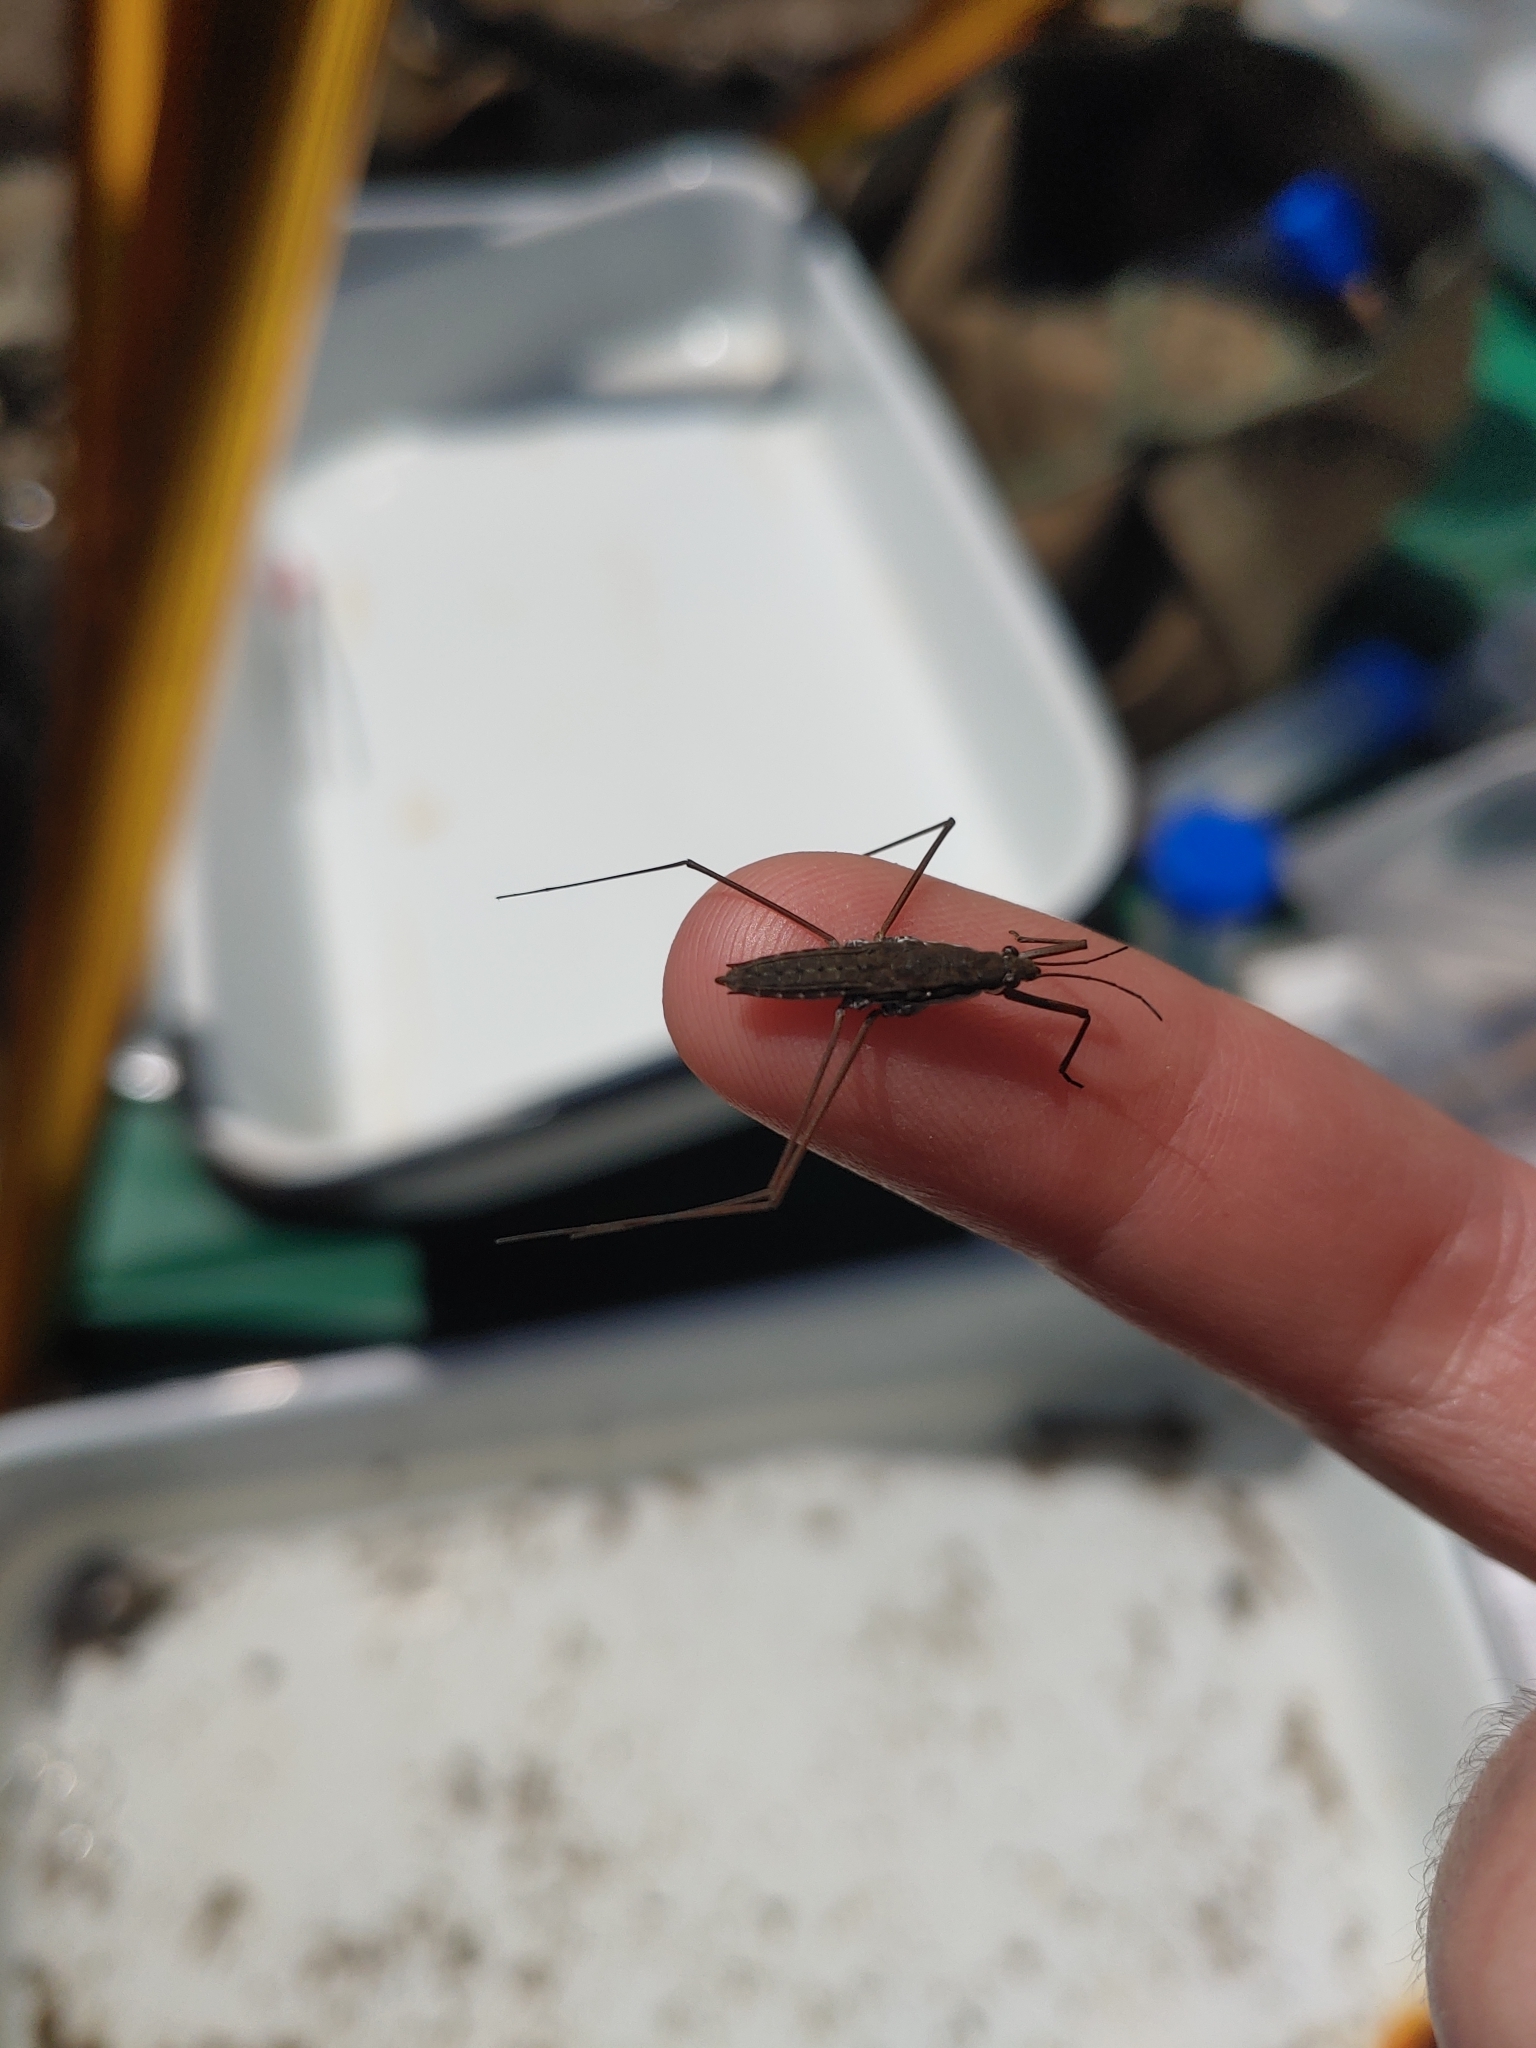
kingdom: Animalia
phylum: Arthropoda
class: Insecta
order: Hemiptera
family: Gerridae
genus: Aquarius
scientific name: Aquarius remigis
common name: Common water strider
